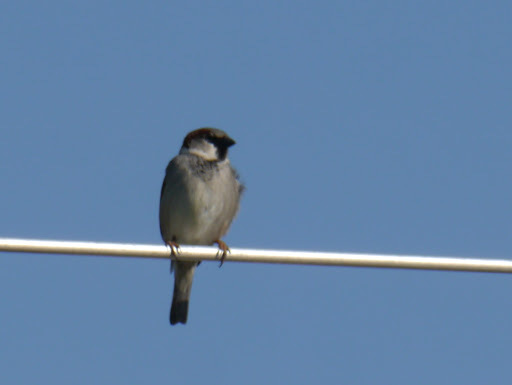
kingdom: Animalia
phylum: Chordata
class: Aves
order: Passeriformes
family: Passeridae
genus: Passer
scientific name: Passer domesticus
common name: House sparrow
